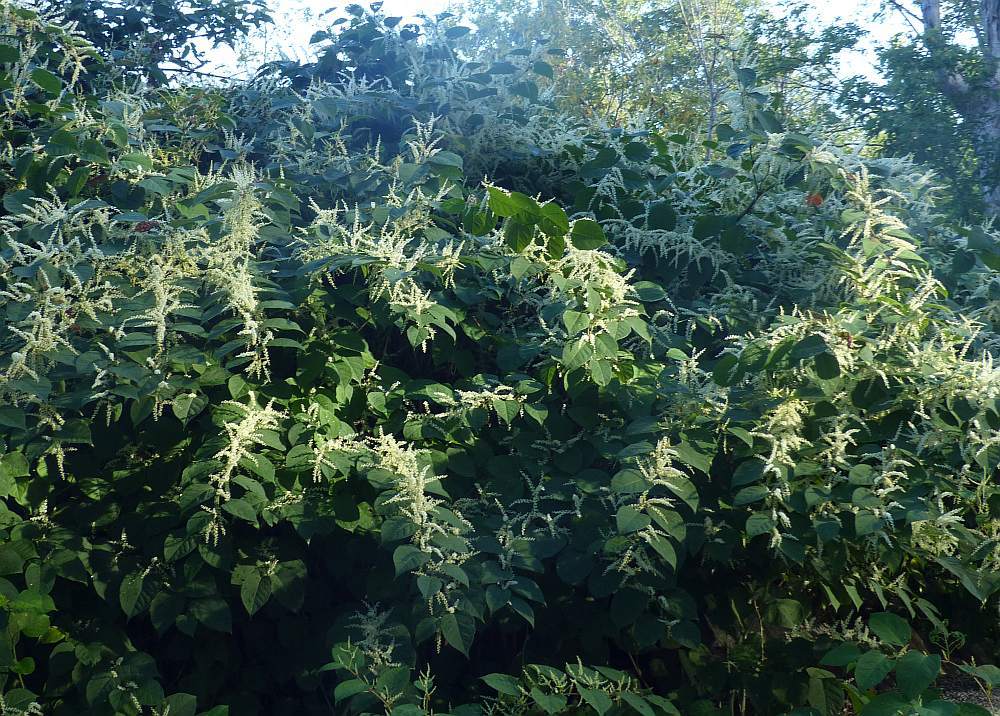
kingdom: Plantae
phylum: Tracheophyta
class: Magnoliopsida
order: Caryophyllales
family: Polygonaceae
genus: Reynoutria
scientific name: Reynoutria japonica
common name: Japanese knotweed
